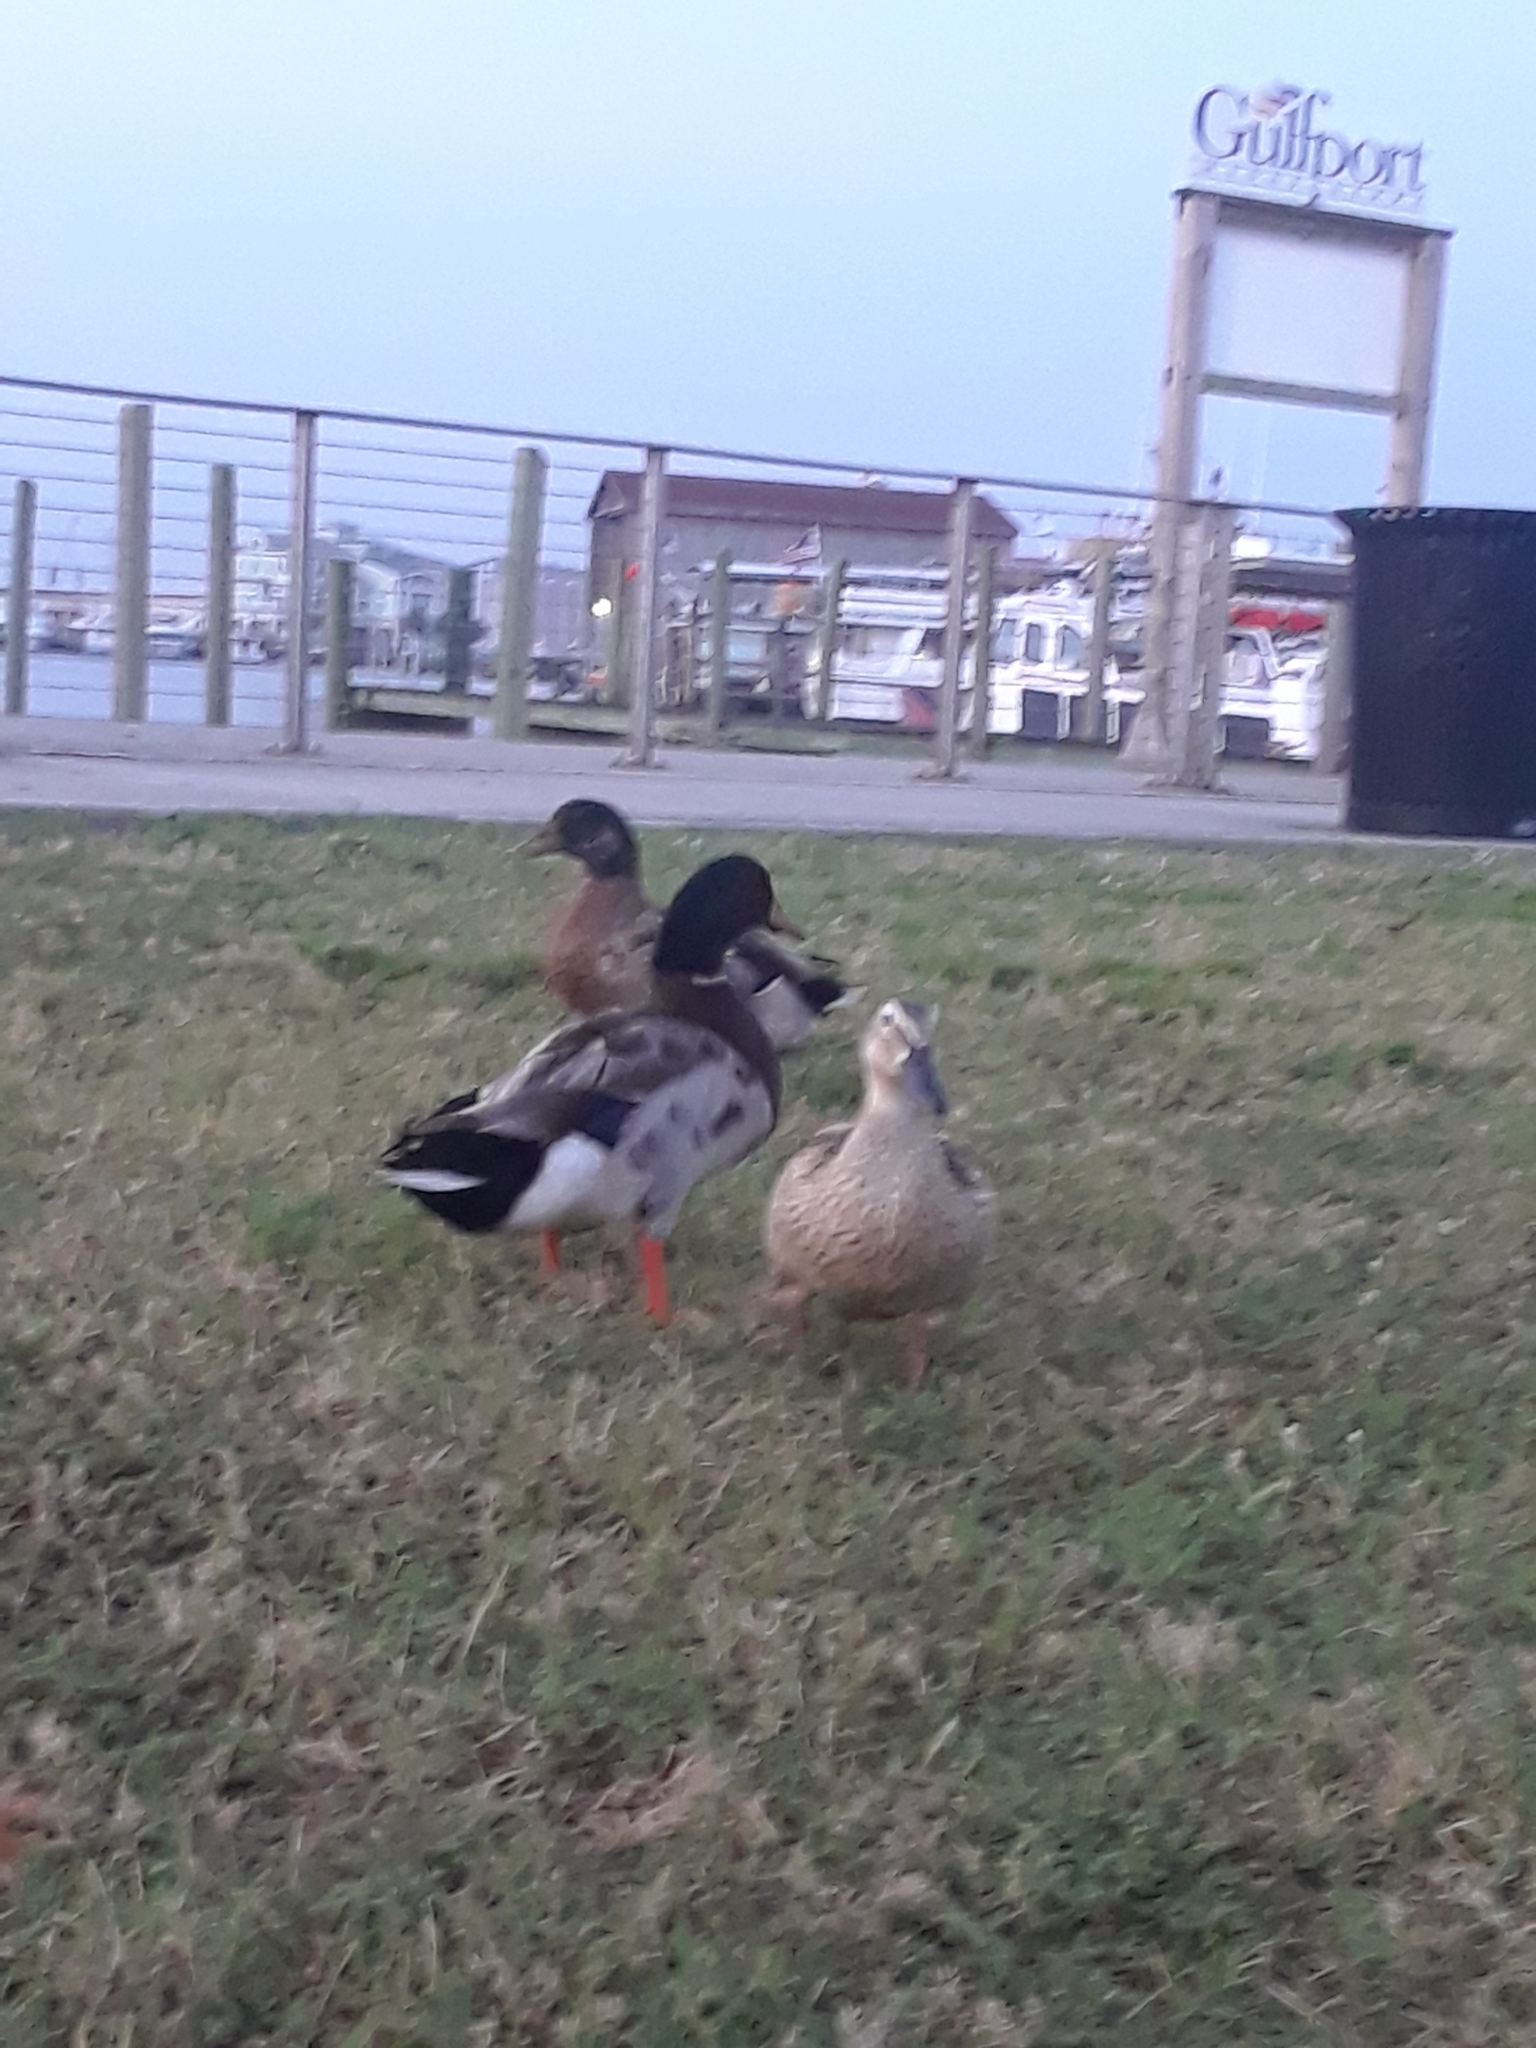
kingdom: Animalia
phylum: Chordata
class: Aves
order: Anseriformes
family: Anatidae
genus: Anas
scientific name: Anas platyrhynchos
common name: Mallard
